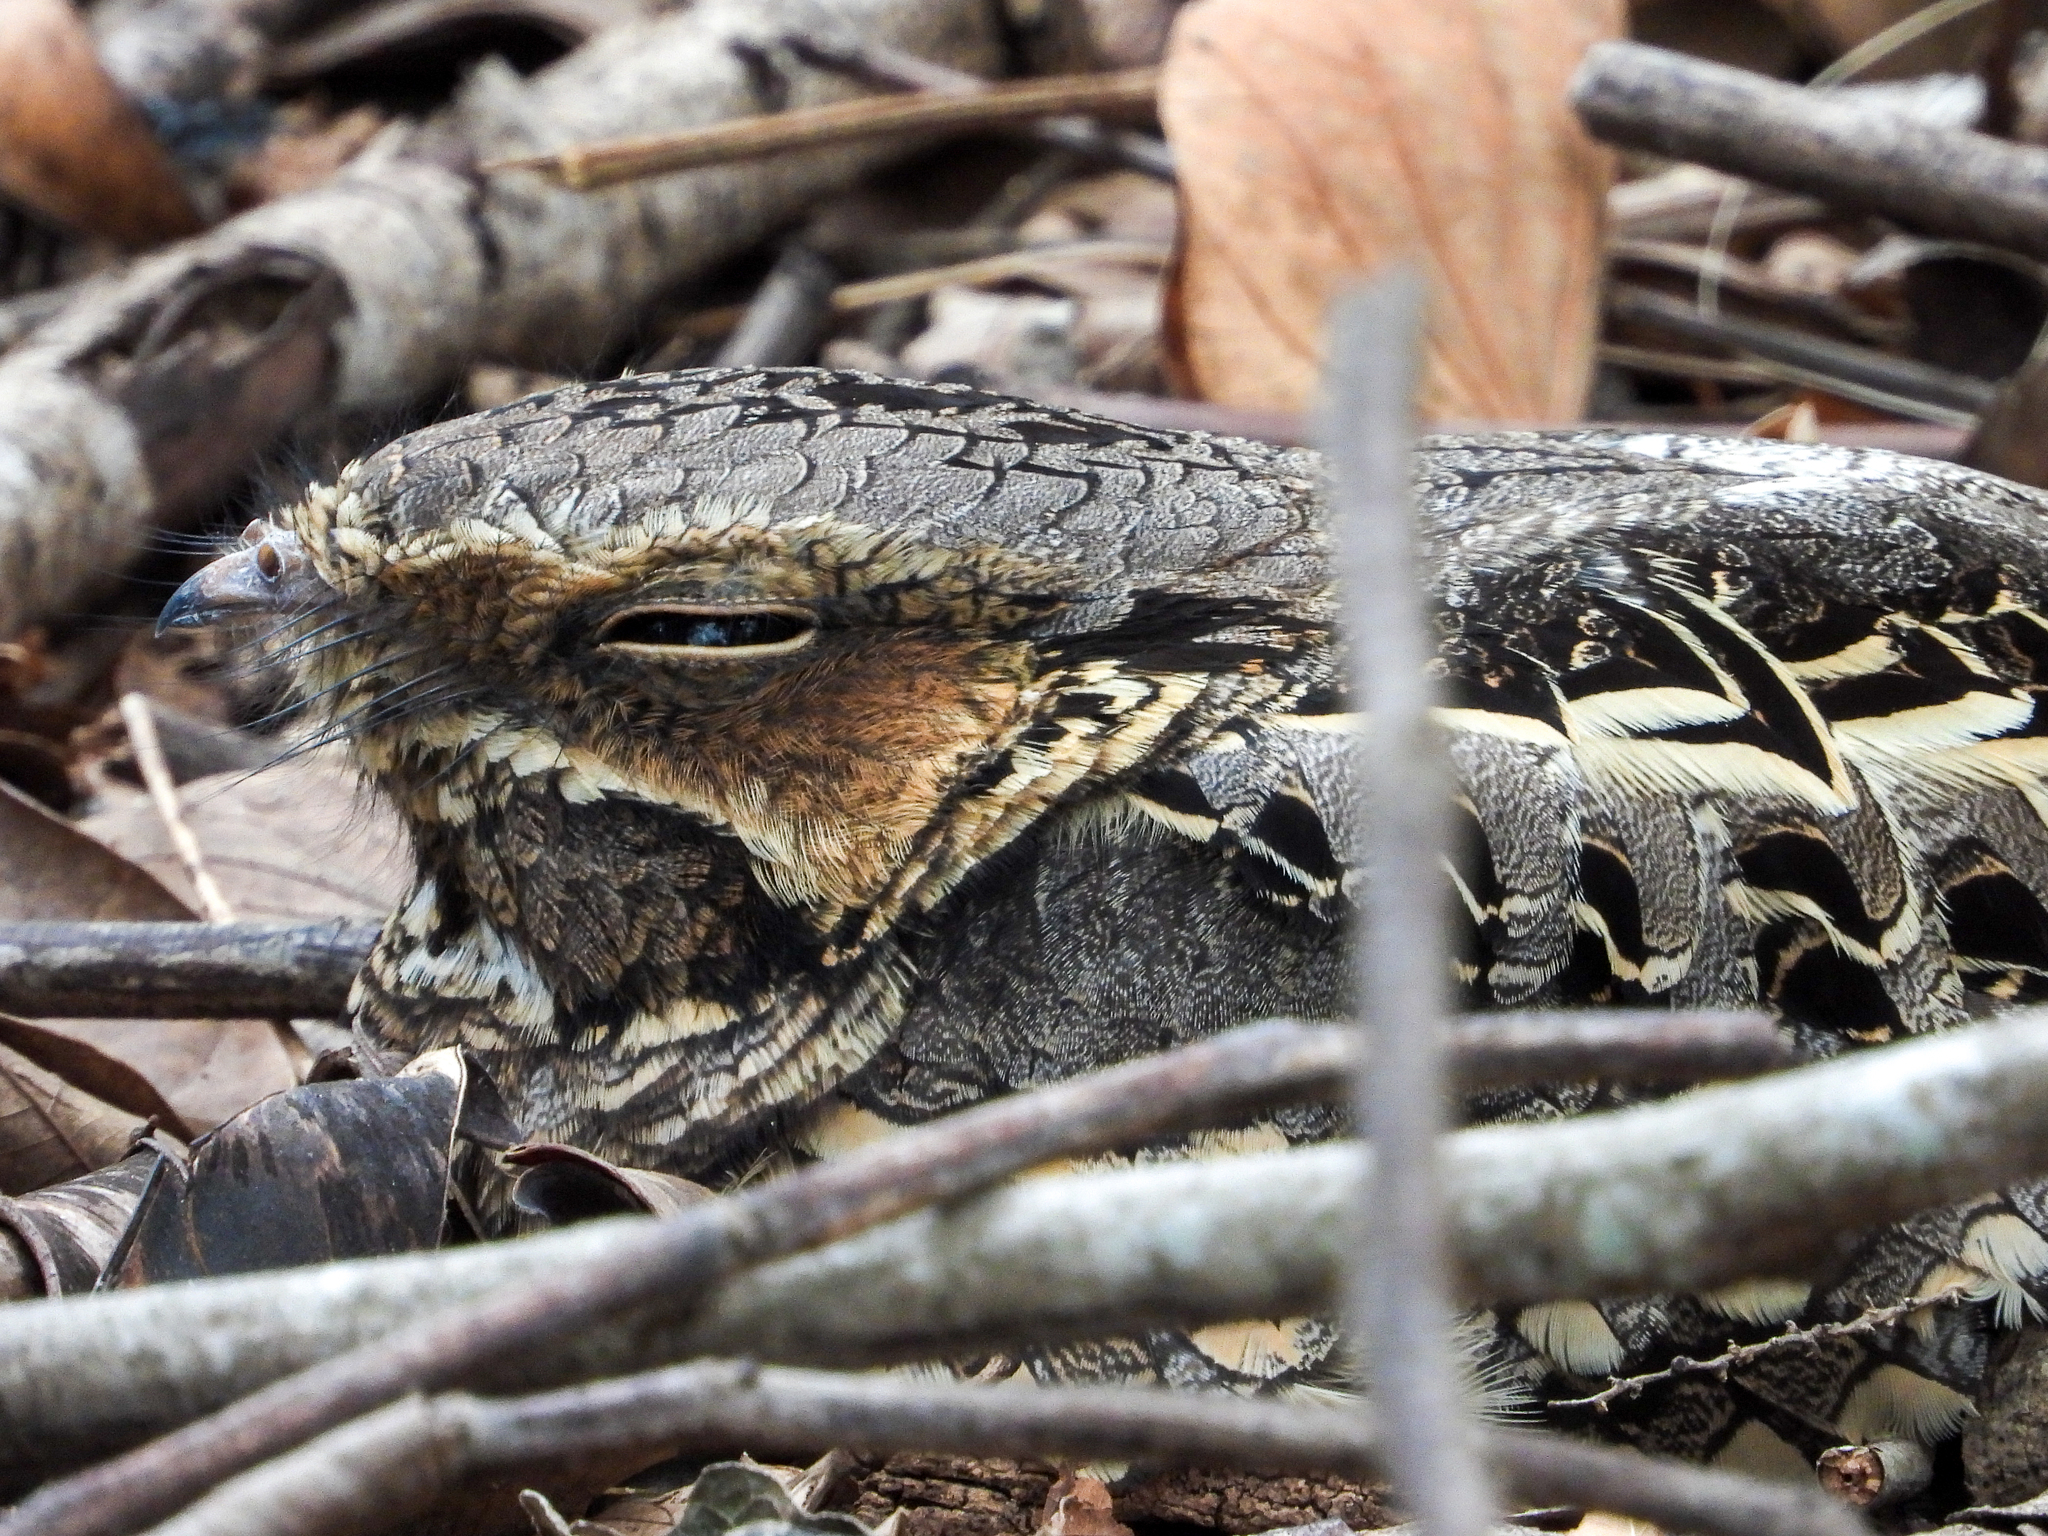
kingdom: Animalia
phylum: Chordata
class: Aves
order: Caprimulgiformes
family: Caprimulgidae
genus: Nyctidromus
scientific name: Nyctidromus albicollis
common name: Pauraque
